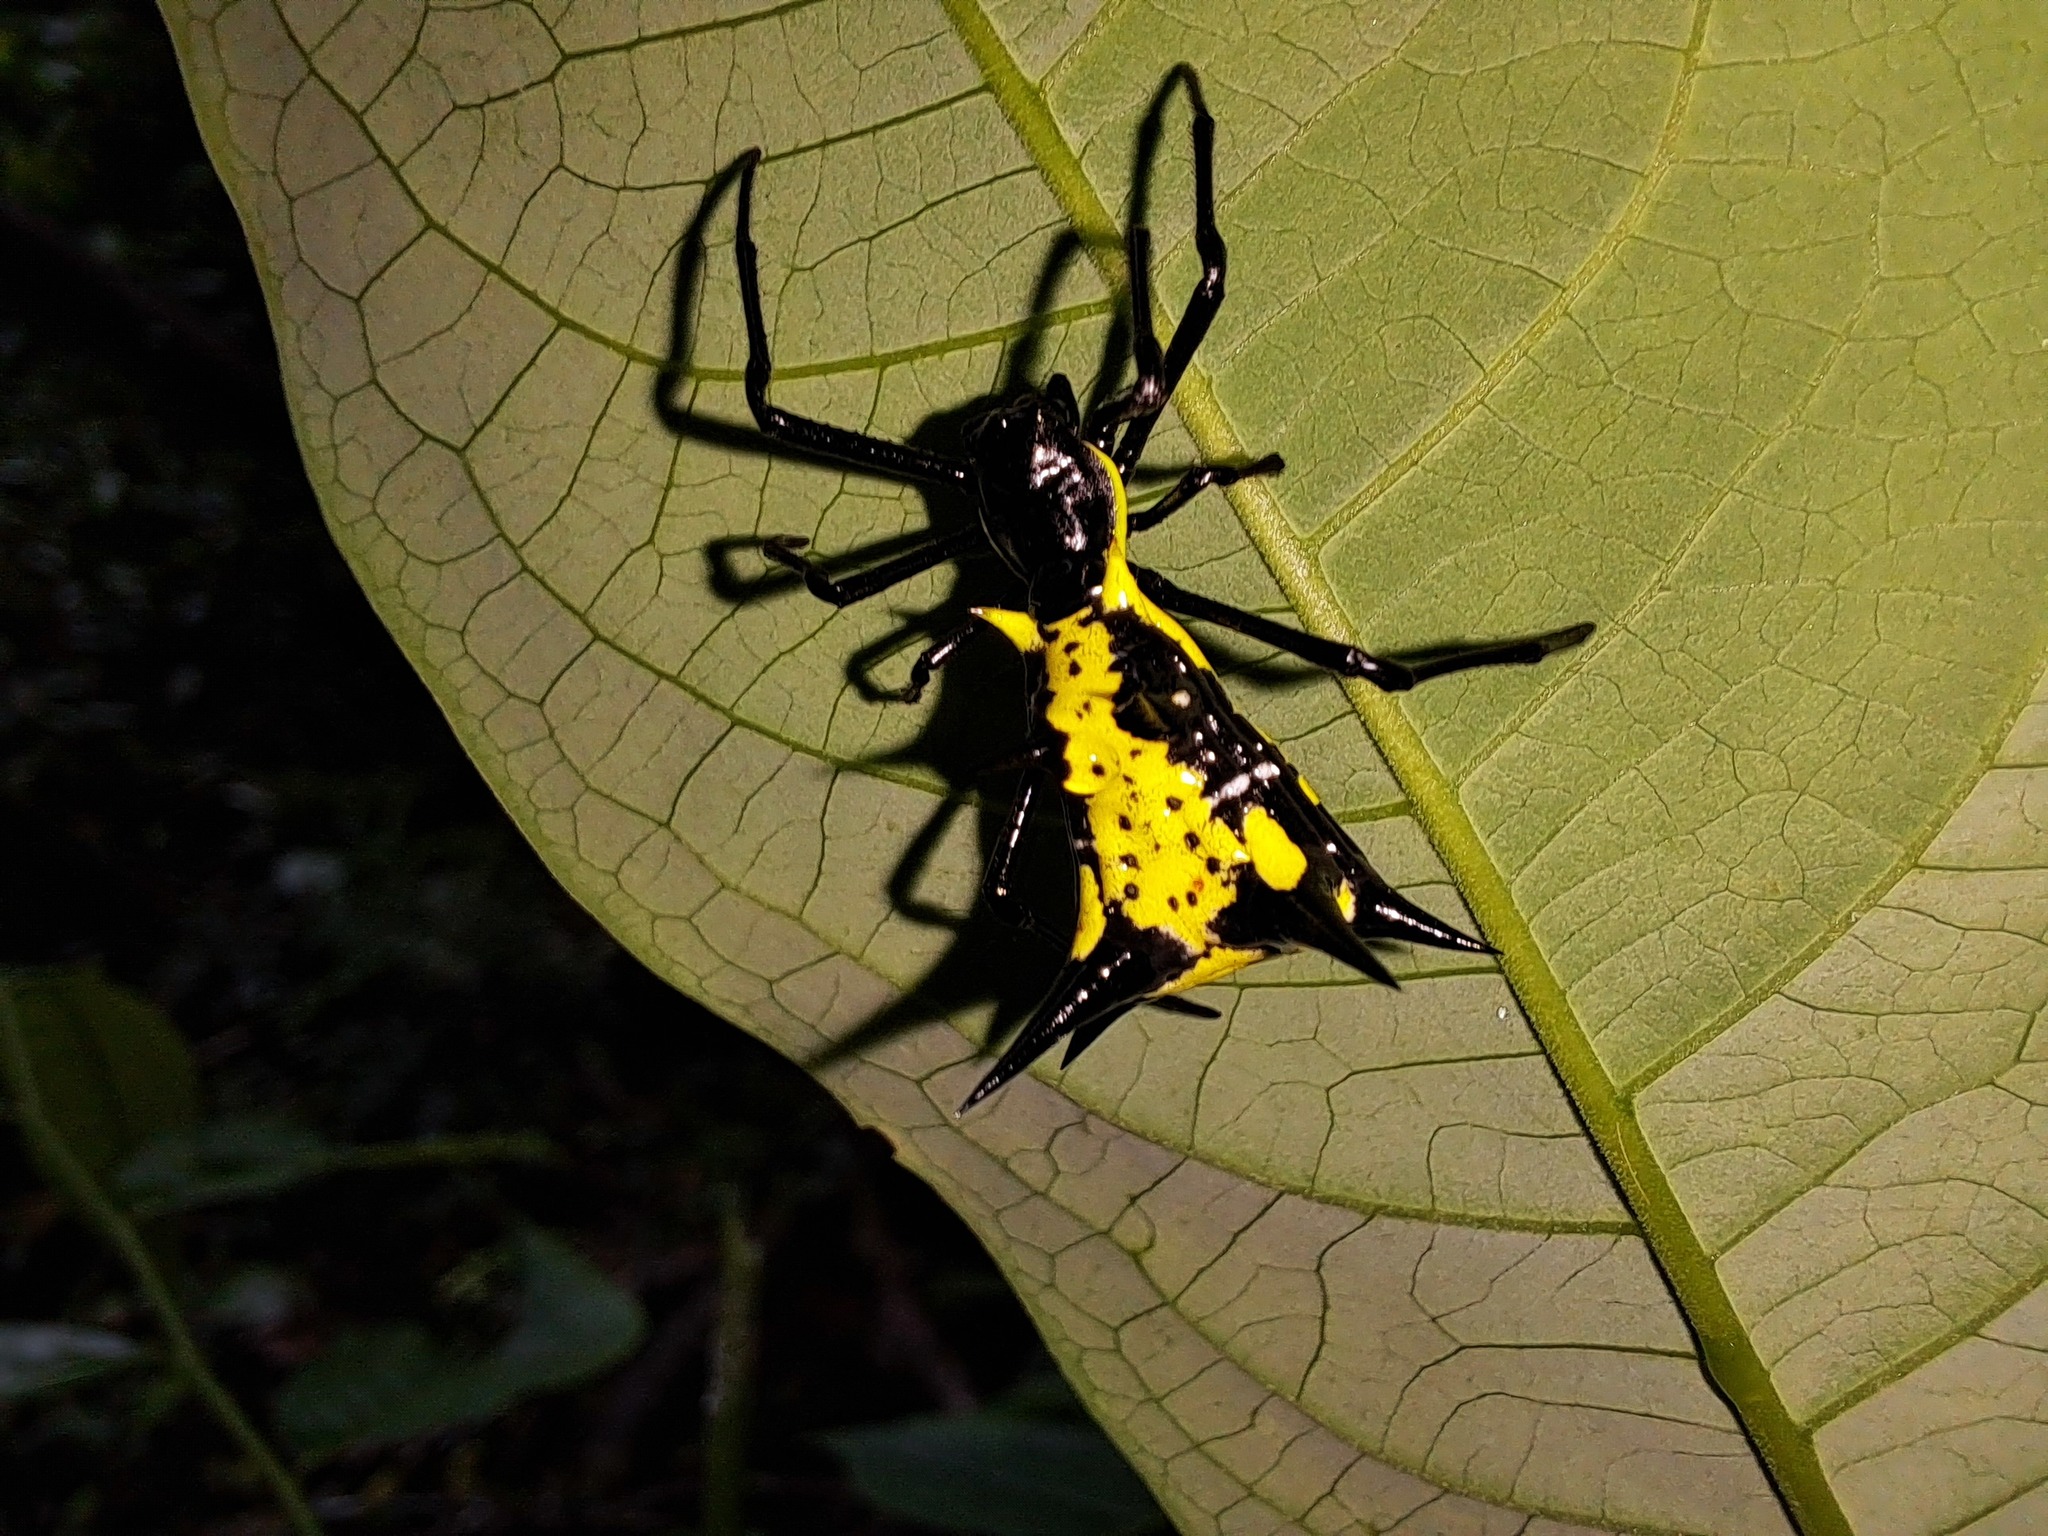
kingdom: Animalia
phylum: Arthropoda
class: Arachnida
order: Araneae
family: Araneidae
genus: Micrathena
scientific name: Micrathena vigorsi
